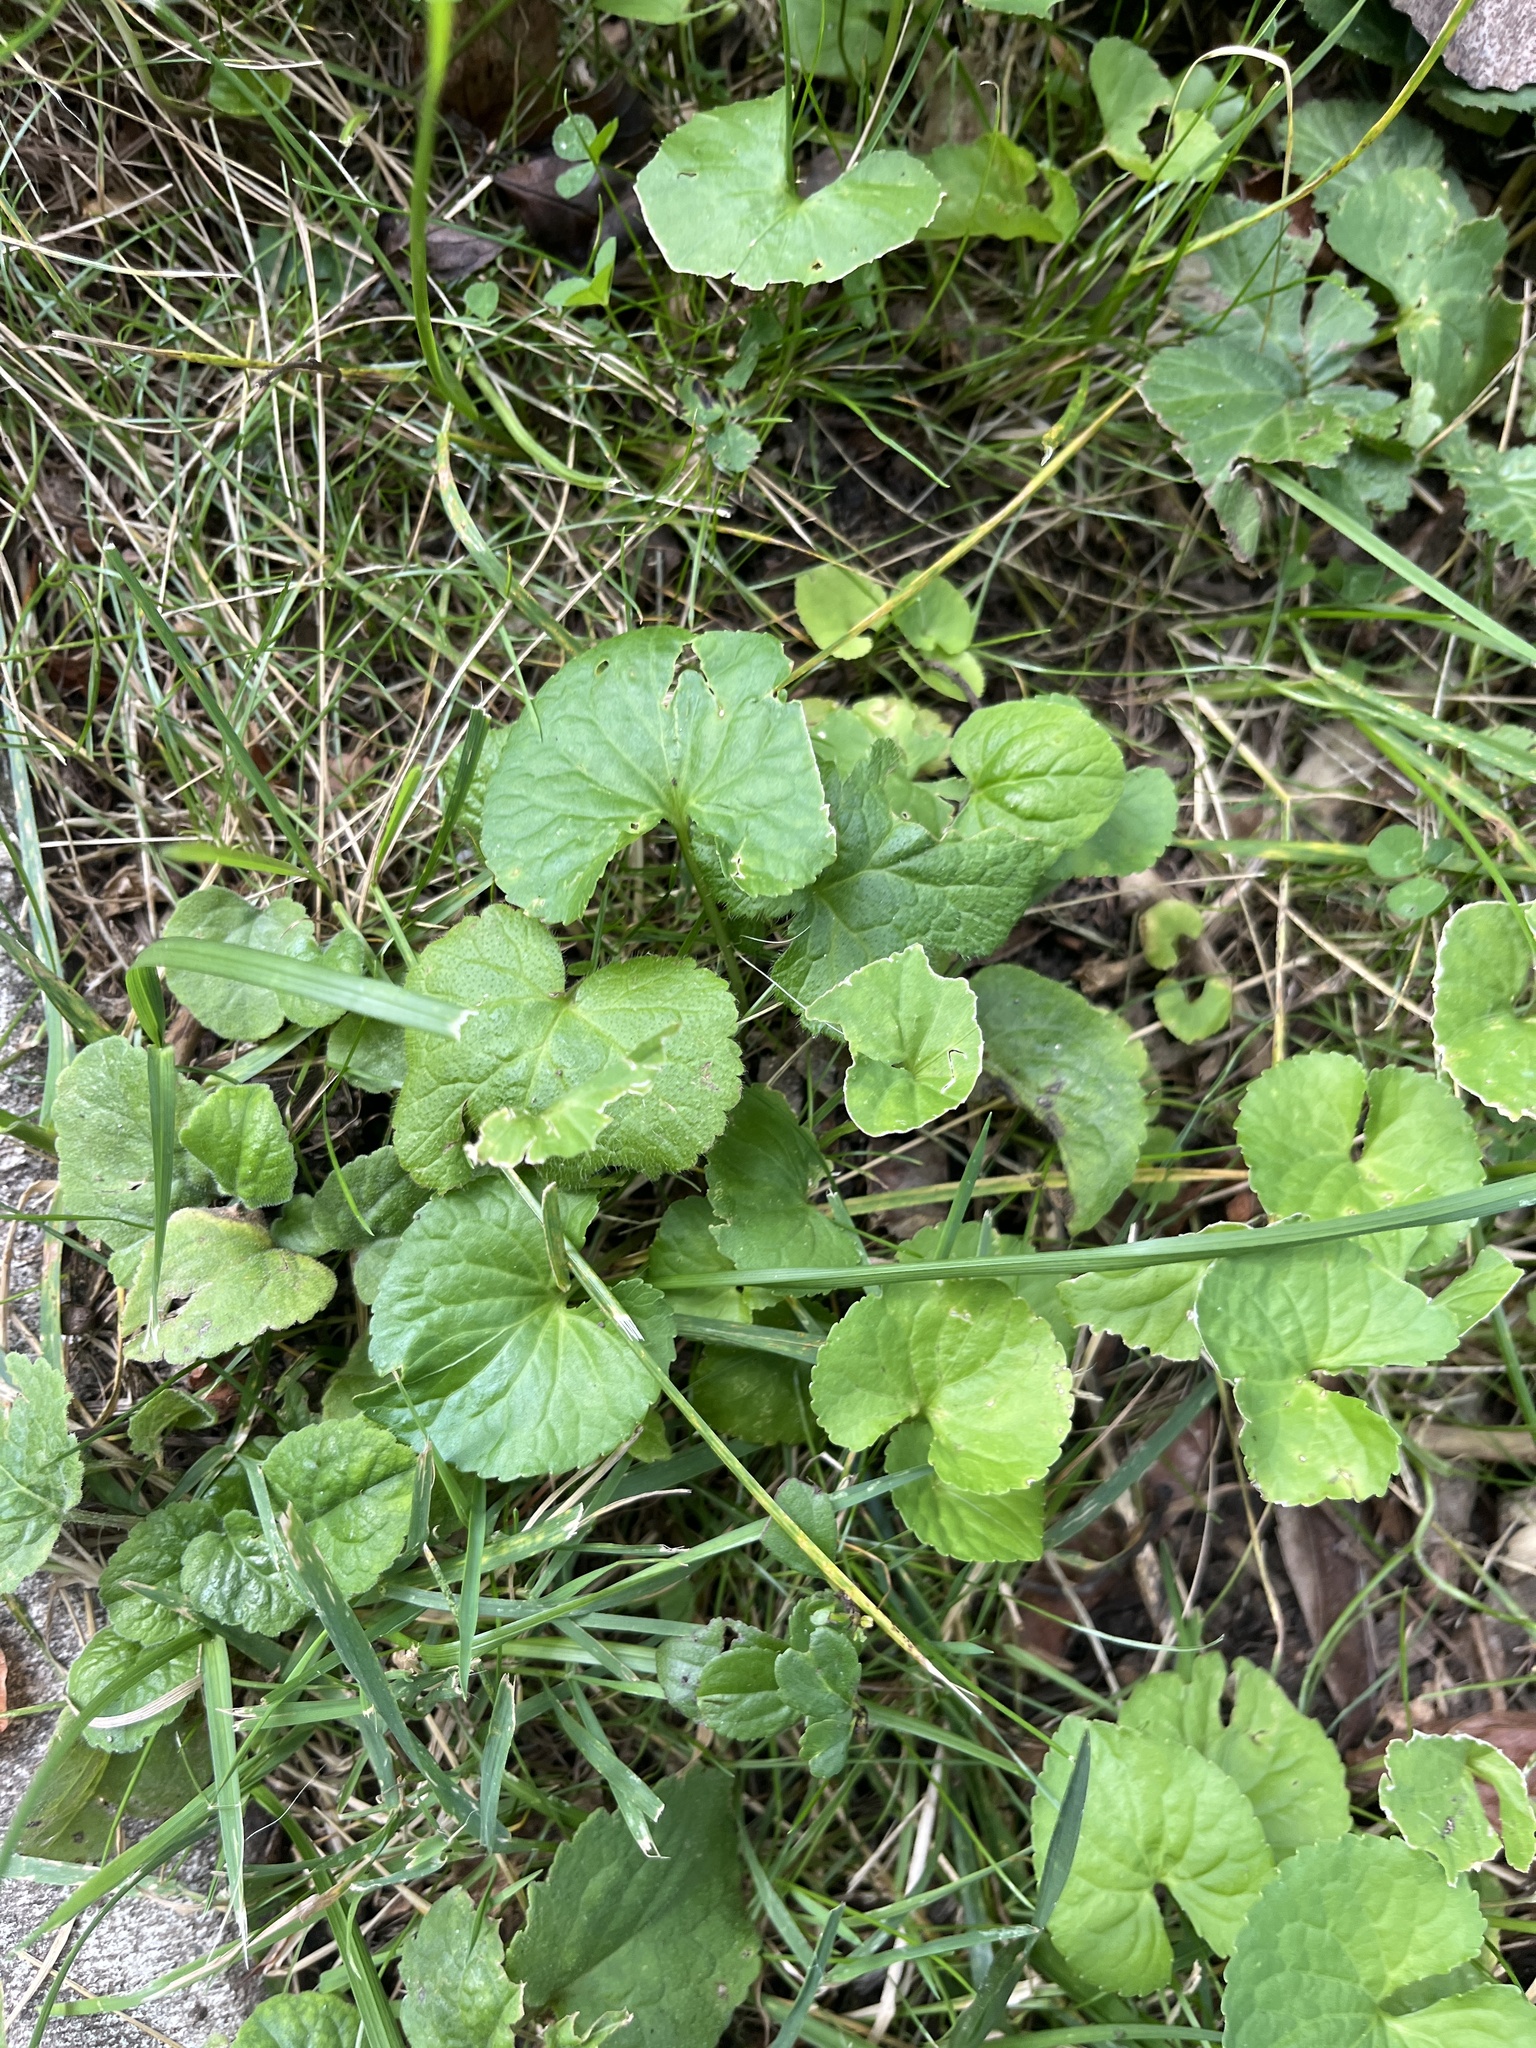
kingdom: Plantae
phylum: Tracheophyta
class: Magnoliopsida
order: Malpighiales
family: Violaceae
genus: Viola
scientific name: Viola sororia
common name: Dooryard violet
